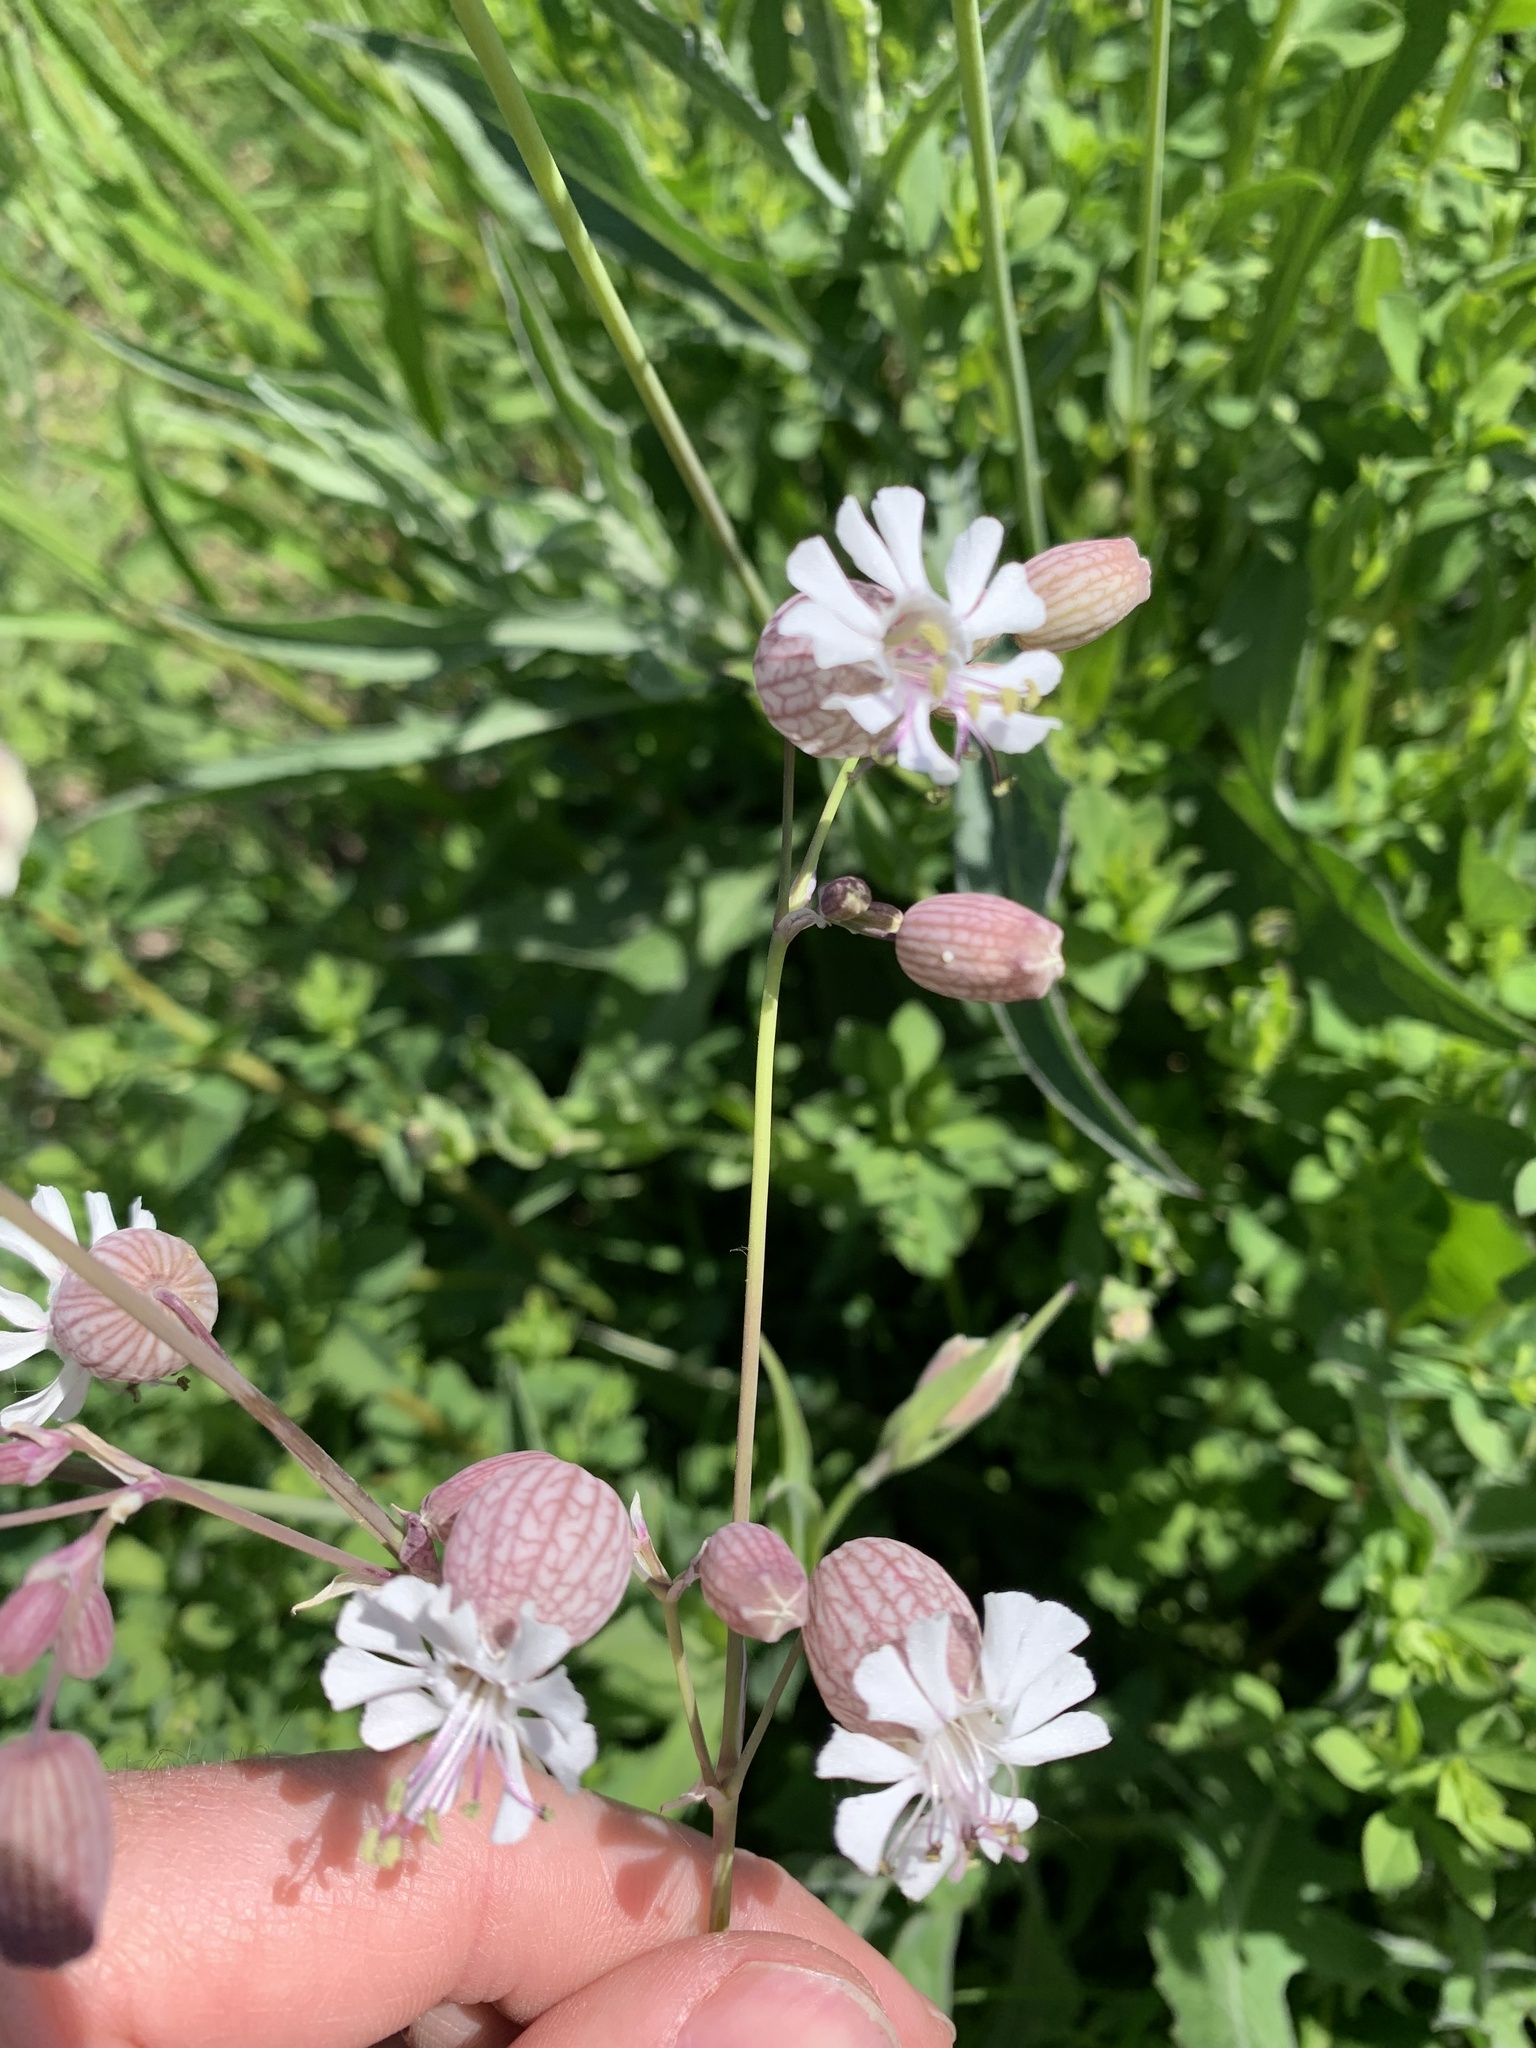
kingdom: Plantae
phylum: Tracheophyta
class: Magnoliopsida
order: Caryophyllales
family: Caryophyllaceae
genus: Silene
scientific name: Silene vulgaris
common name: Bladder campion
